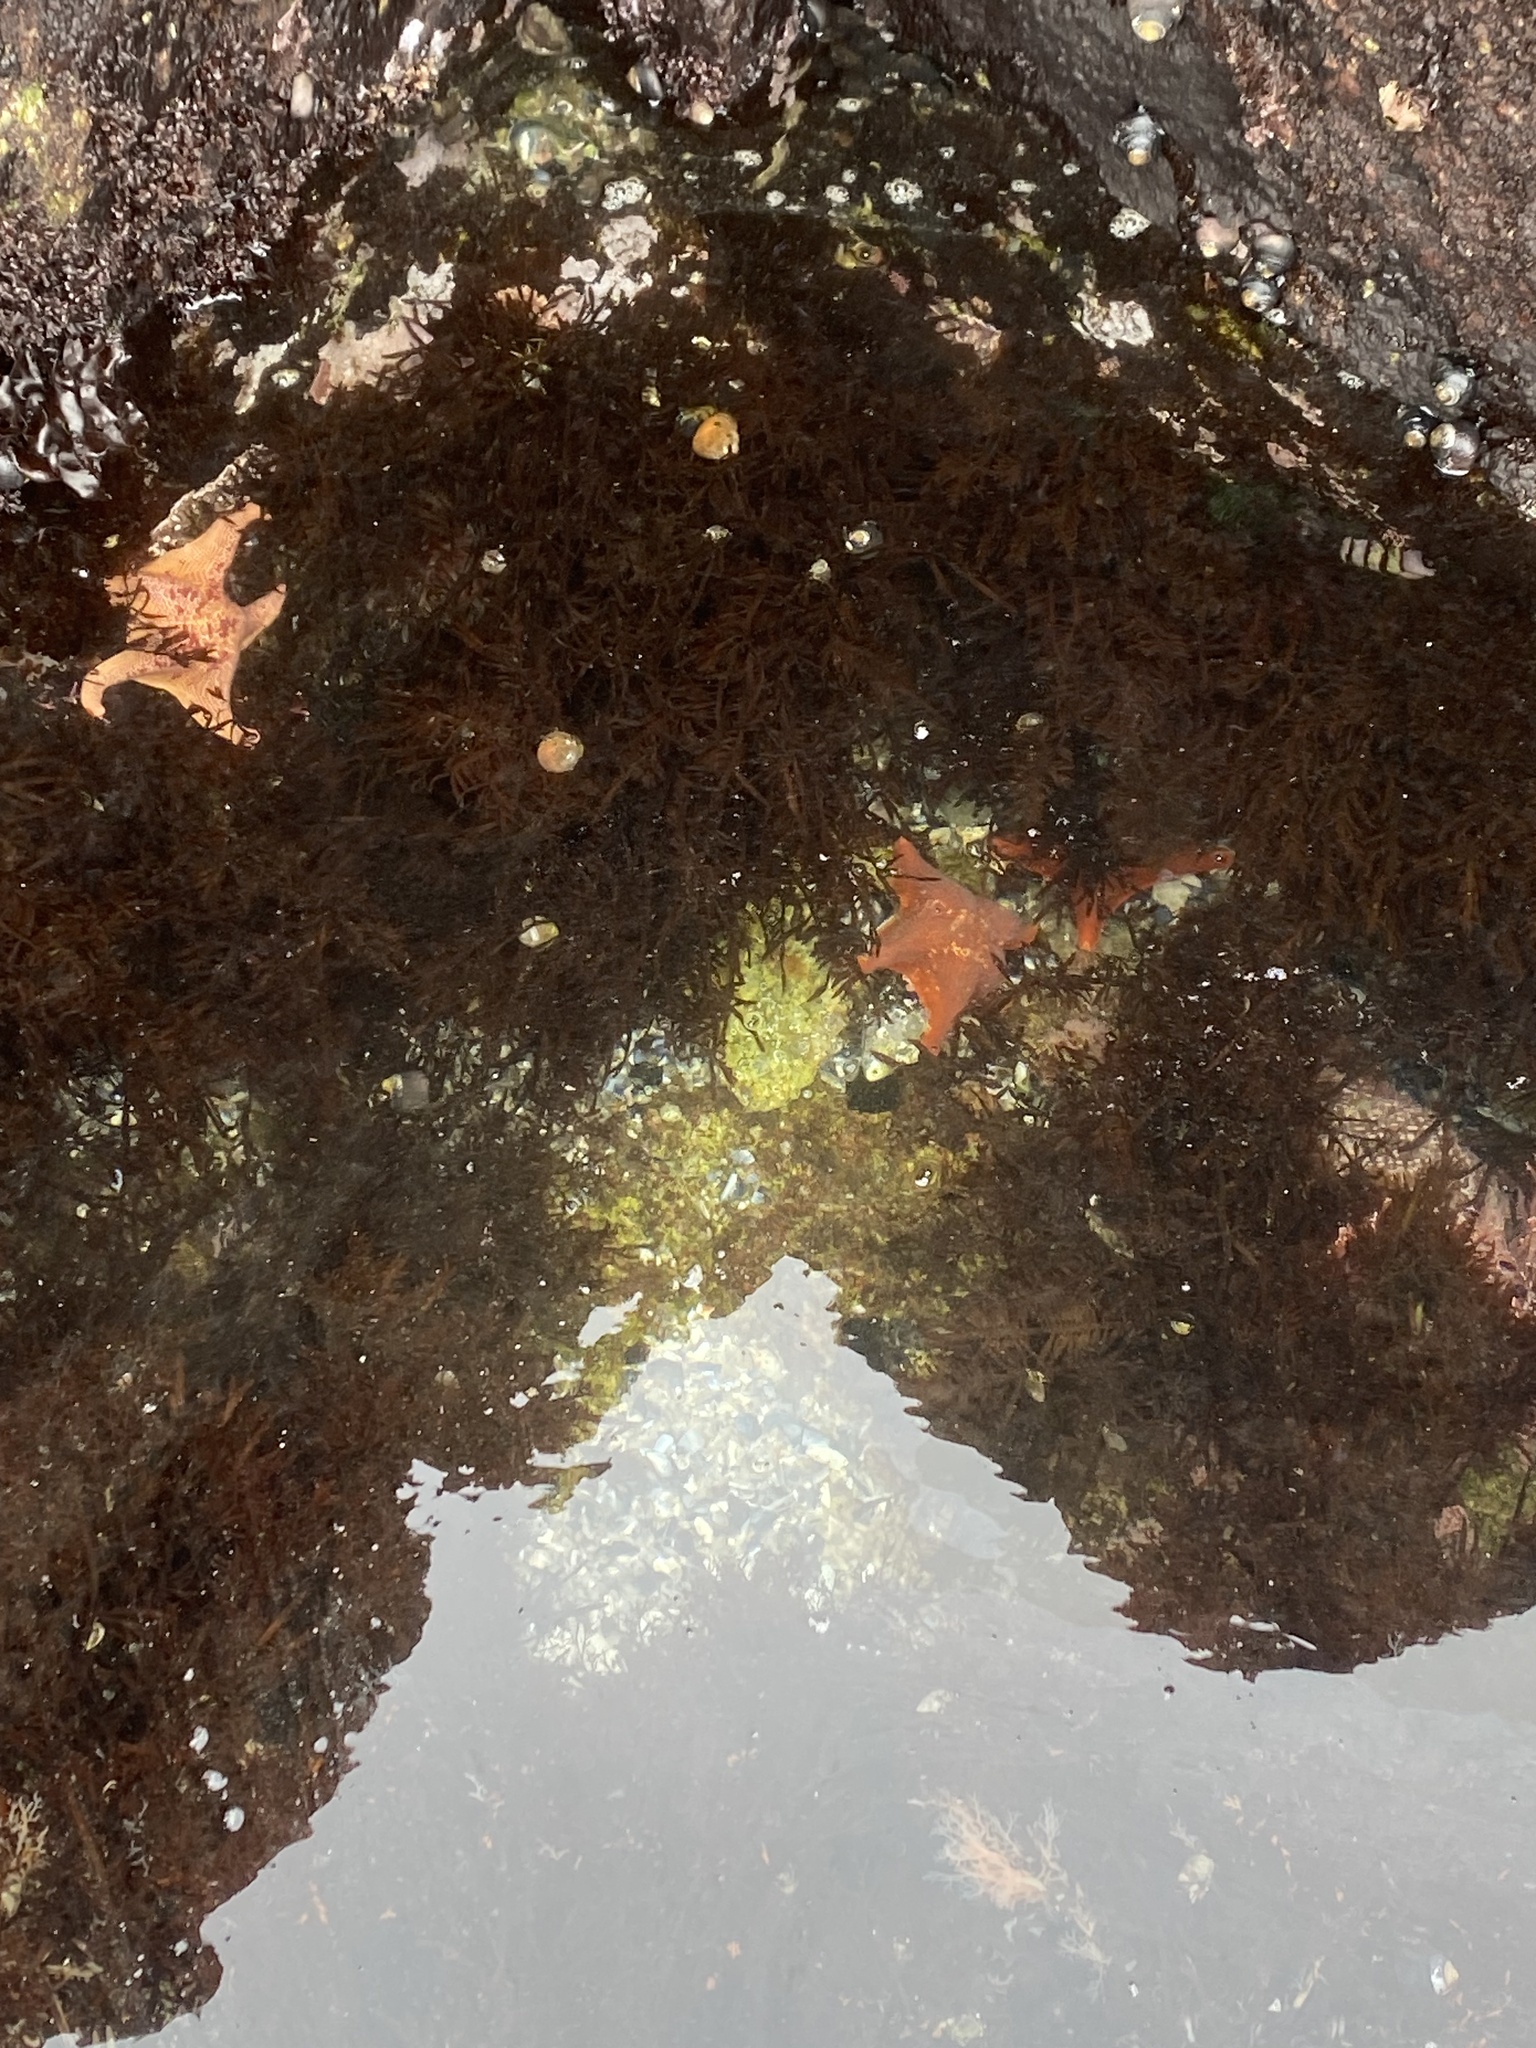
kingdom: Animalia
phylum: Echinodermata
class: Asteroidea
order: Valvatida
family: Asterinidae
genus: Patiria
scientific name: Patiria miniata
